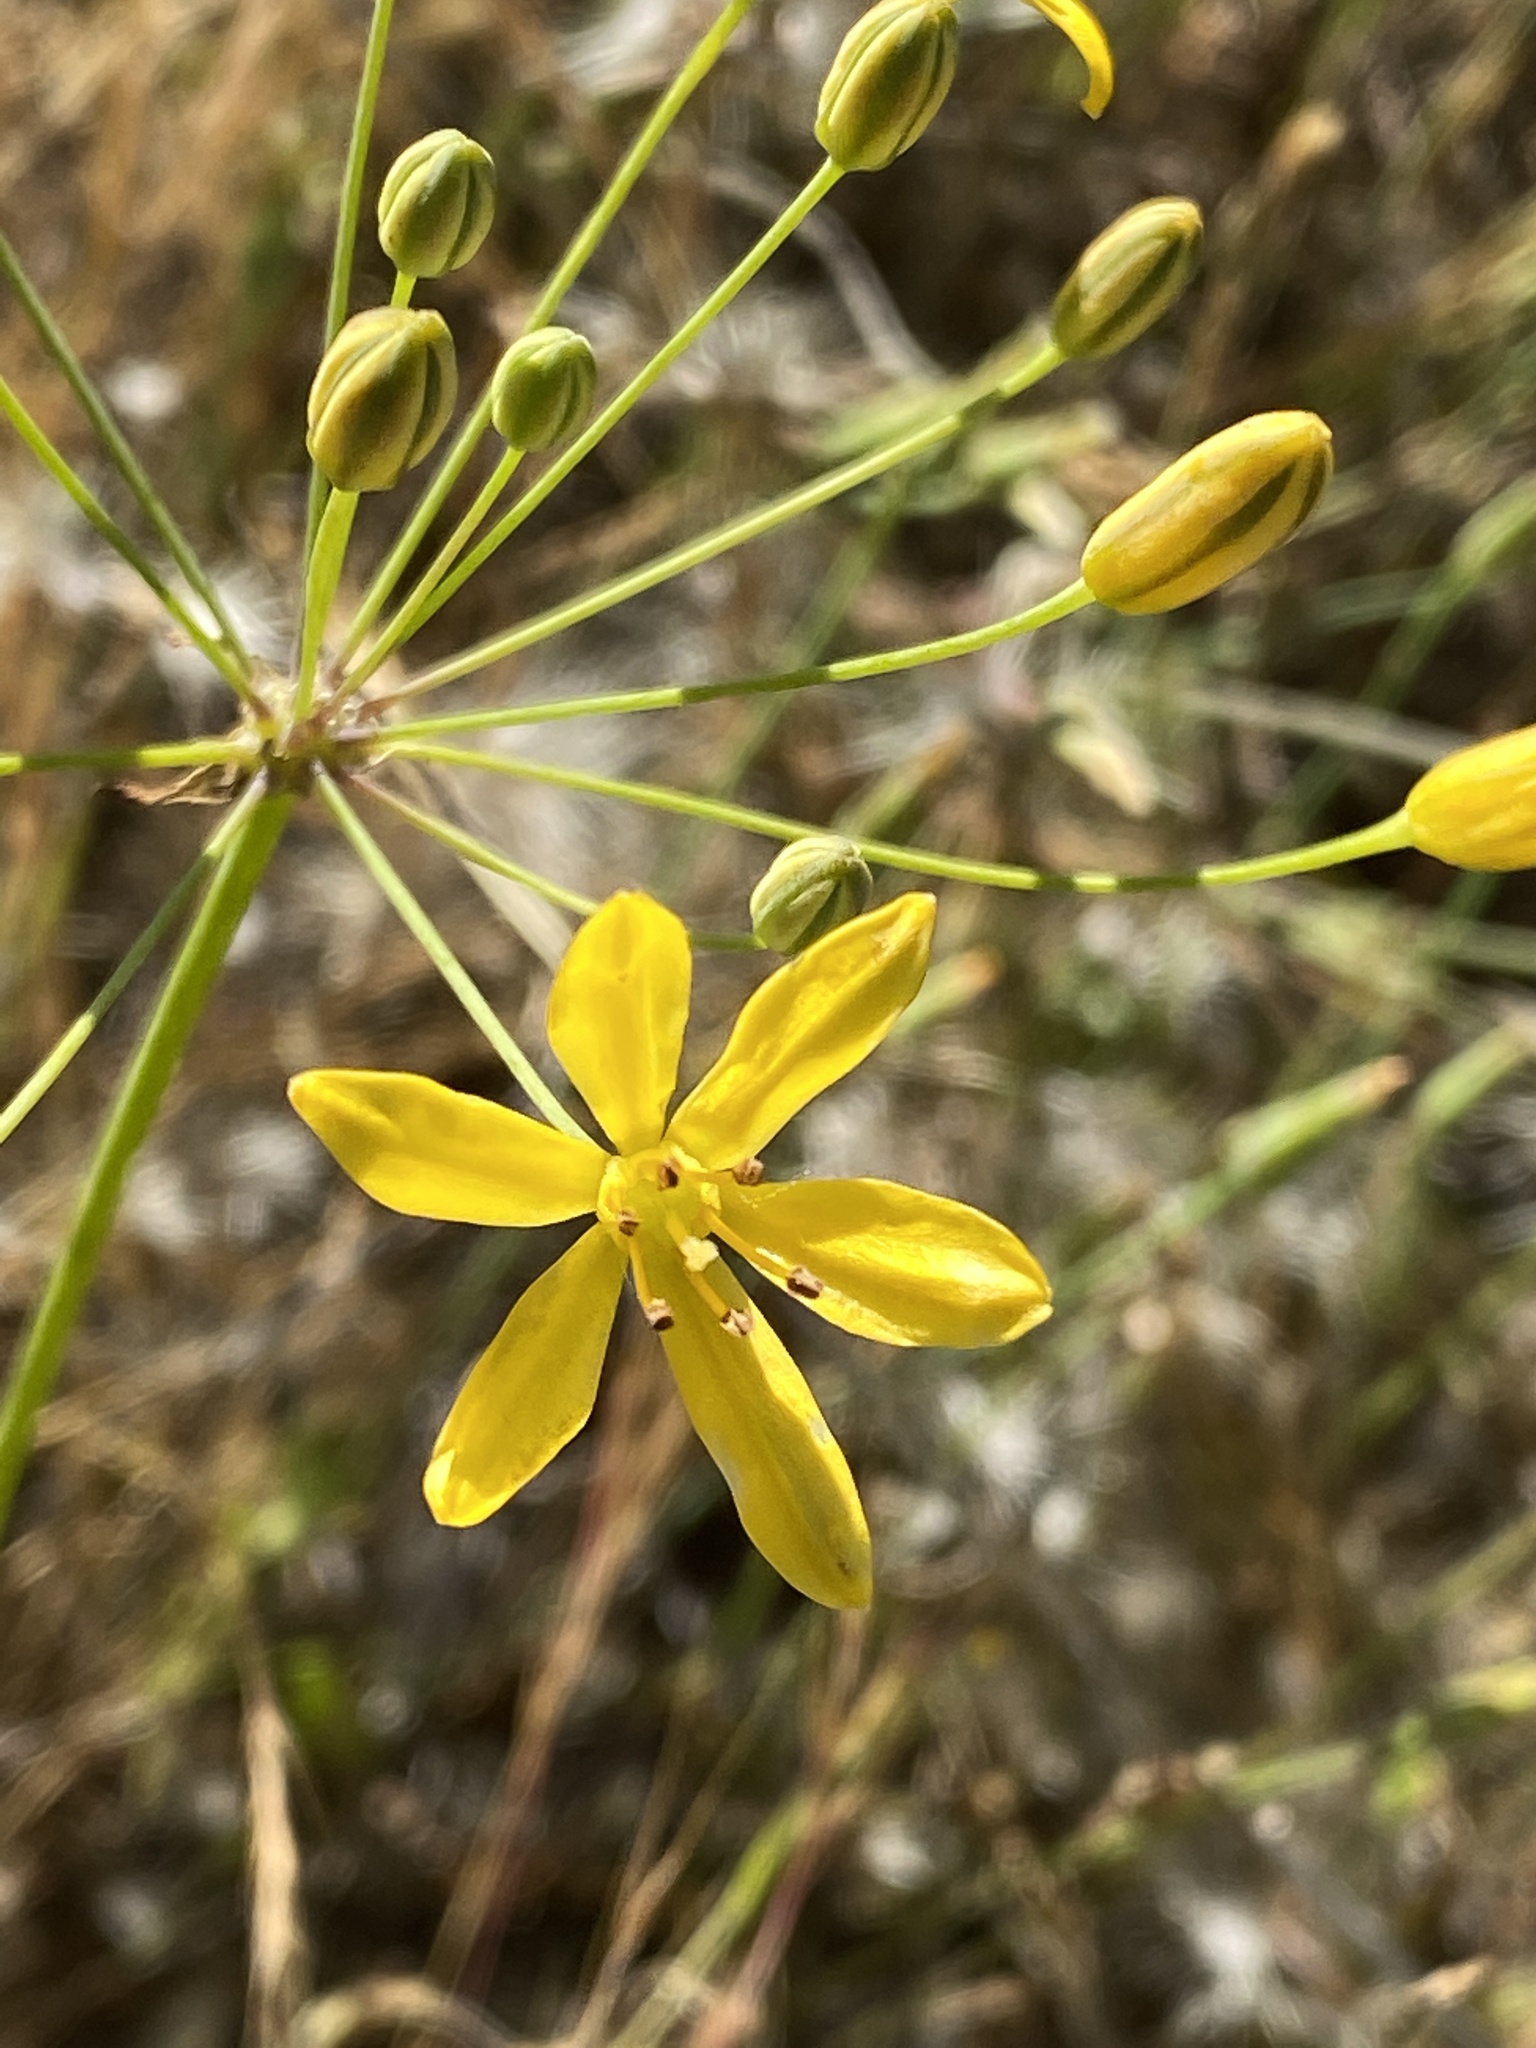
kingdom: Plantae
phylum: Tracheophyta
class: Liliopsida
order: Asparagales
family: Asparagaceae
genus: Bloomeria
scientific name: Bloomeria crocea
